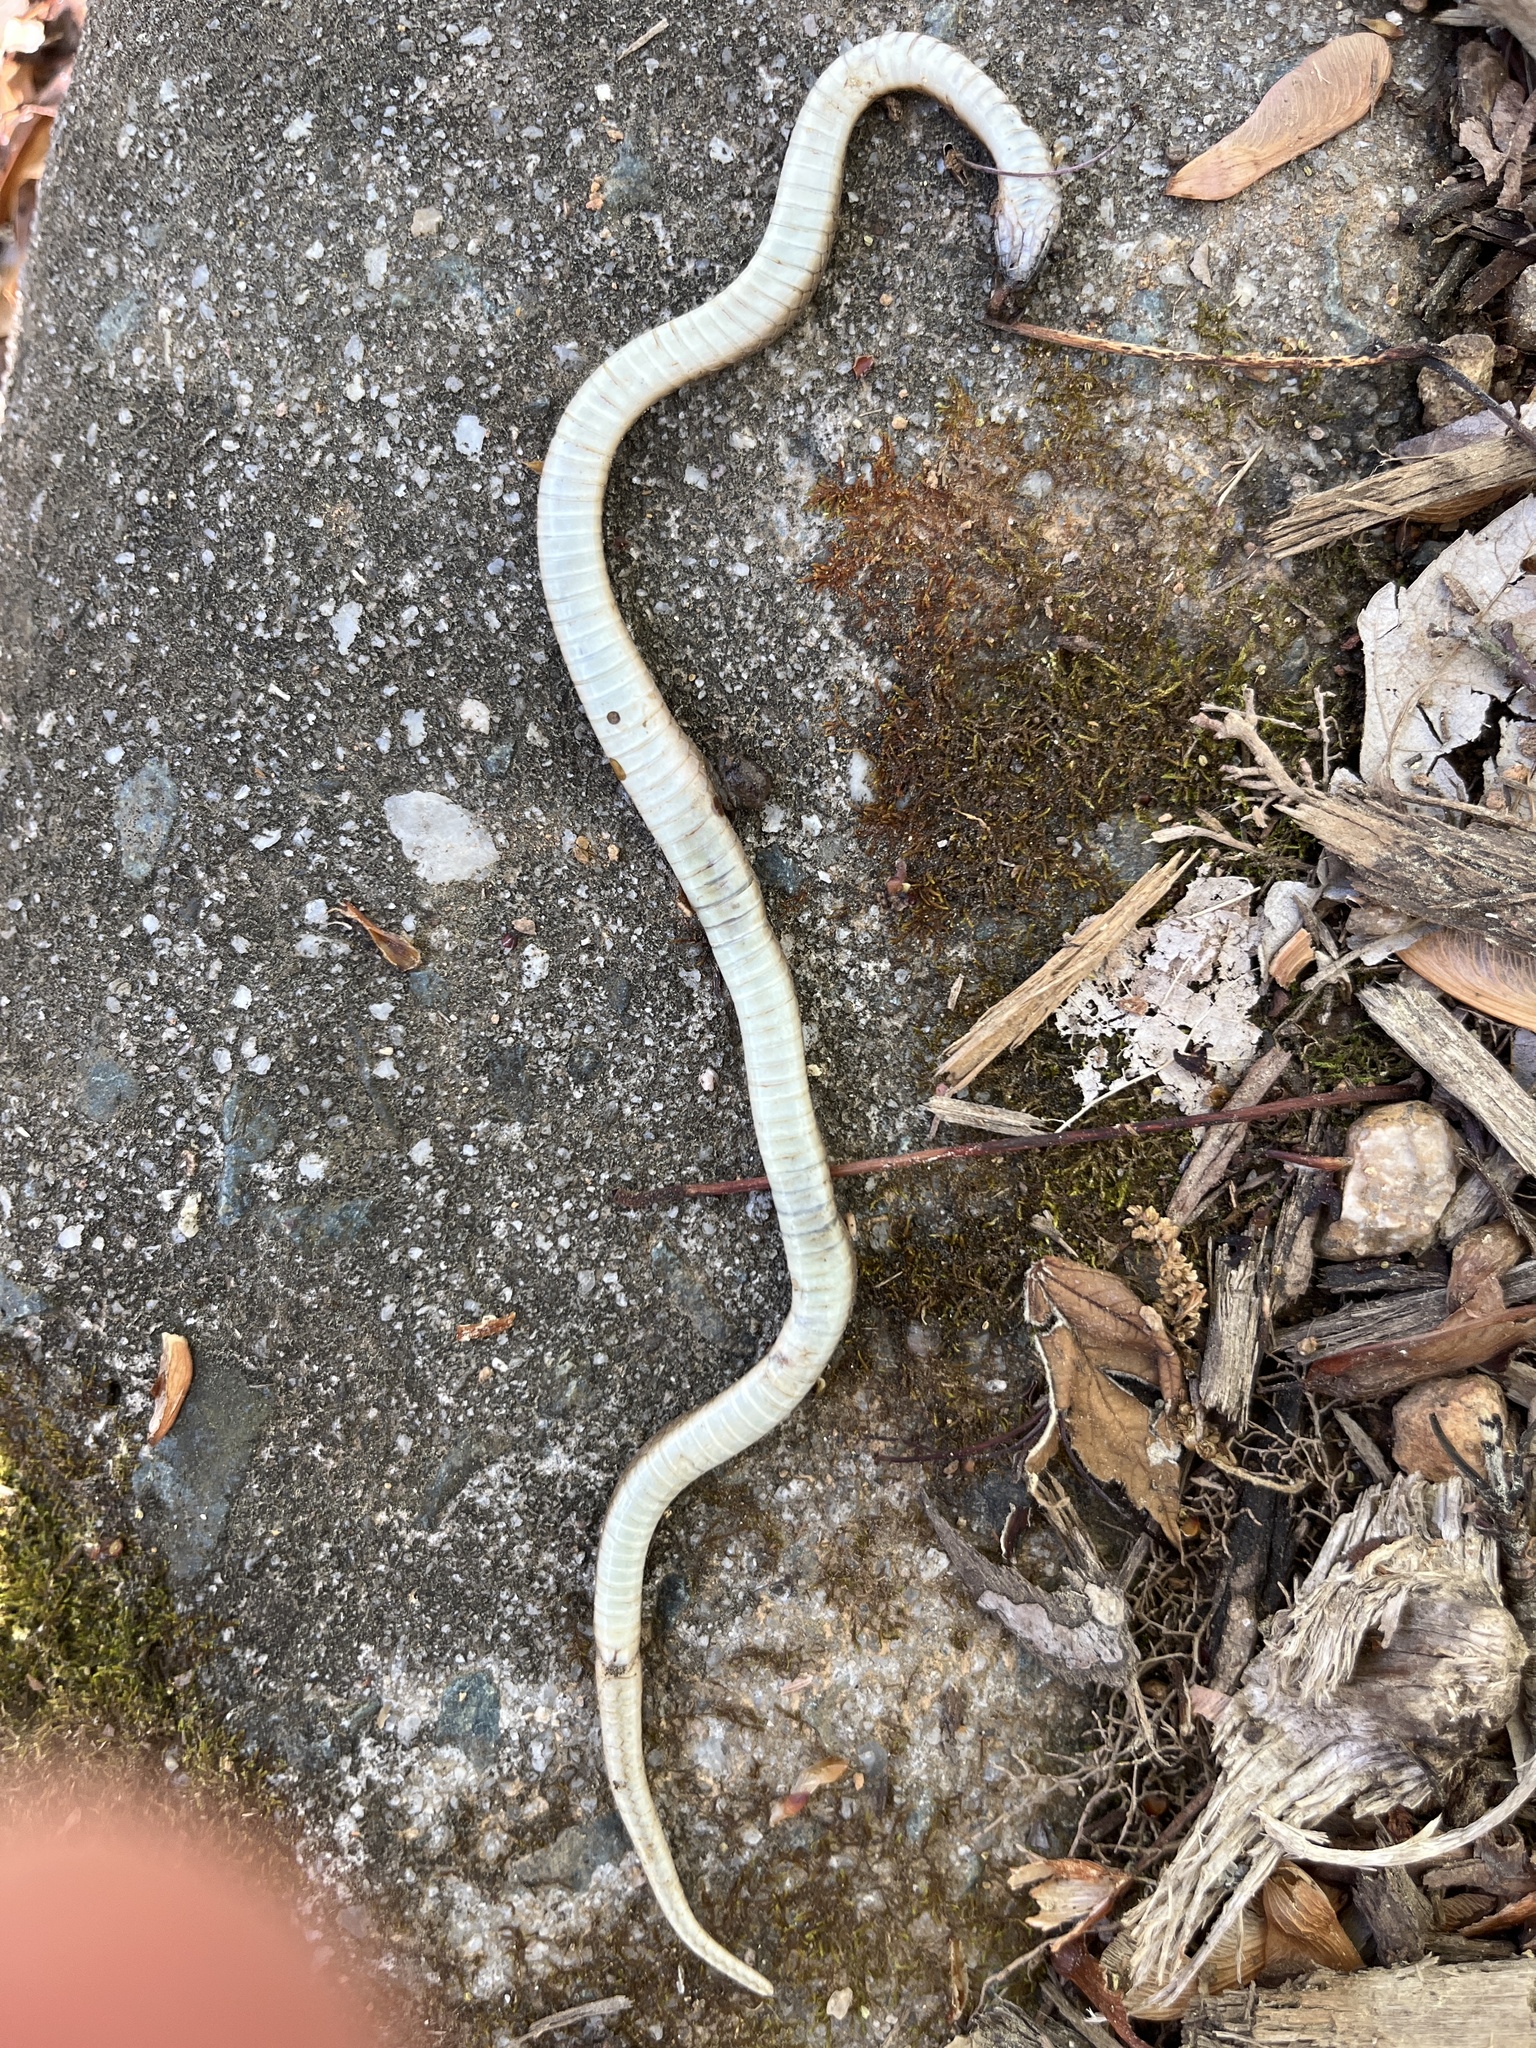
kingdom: Animalia
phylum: Chordata
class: Squamata
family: Colubridae
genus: Haldea
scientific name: Haldea striatula
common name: Rough earth snake
